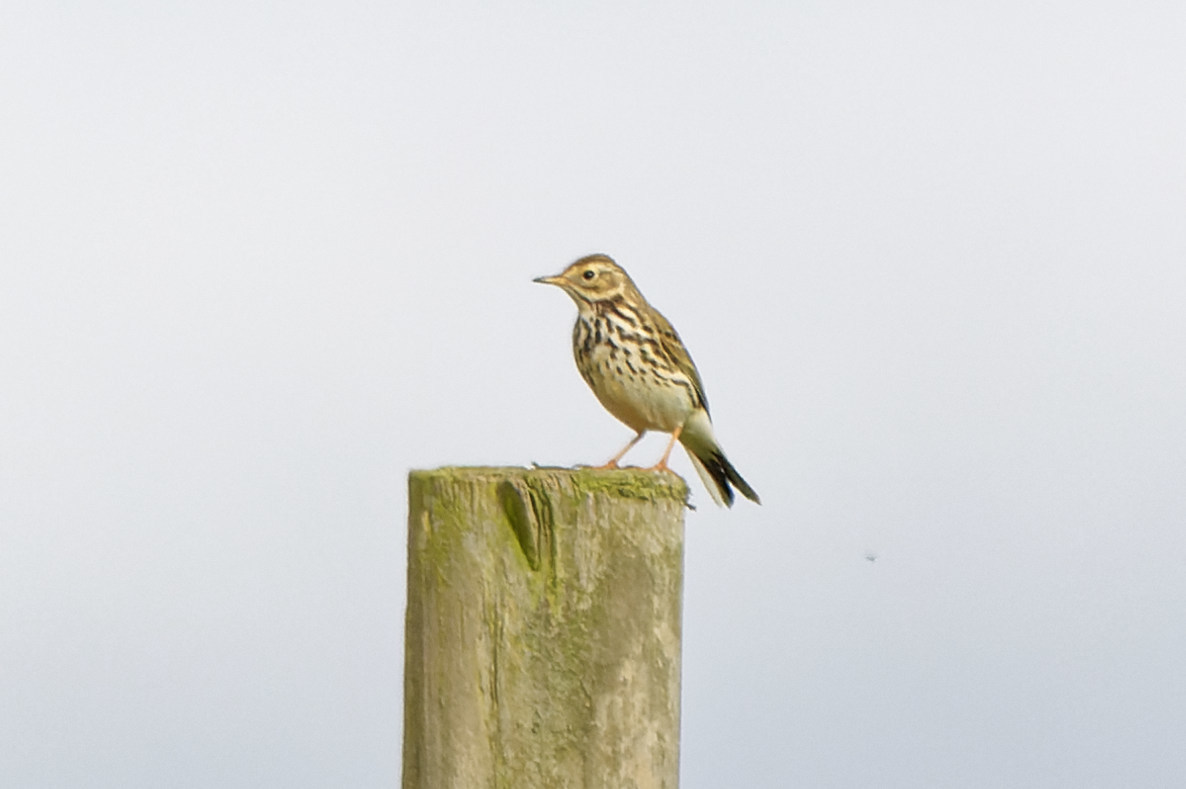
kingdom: Animalia
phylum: Chordata
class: Aves
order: Passeriformes
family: Motacillidae
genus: Anthus
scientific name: Anthus pratensis
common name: Meadow pipit
